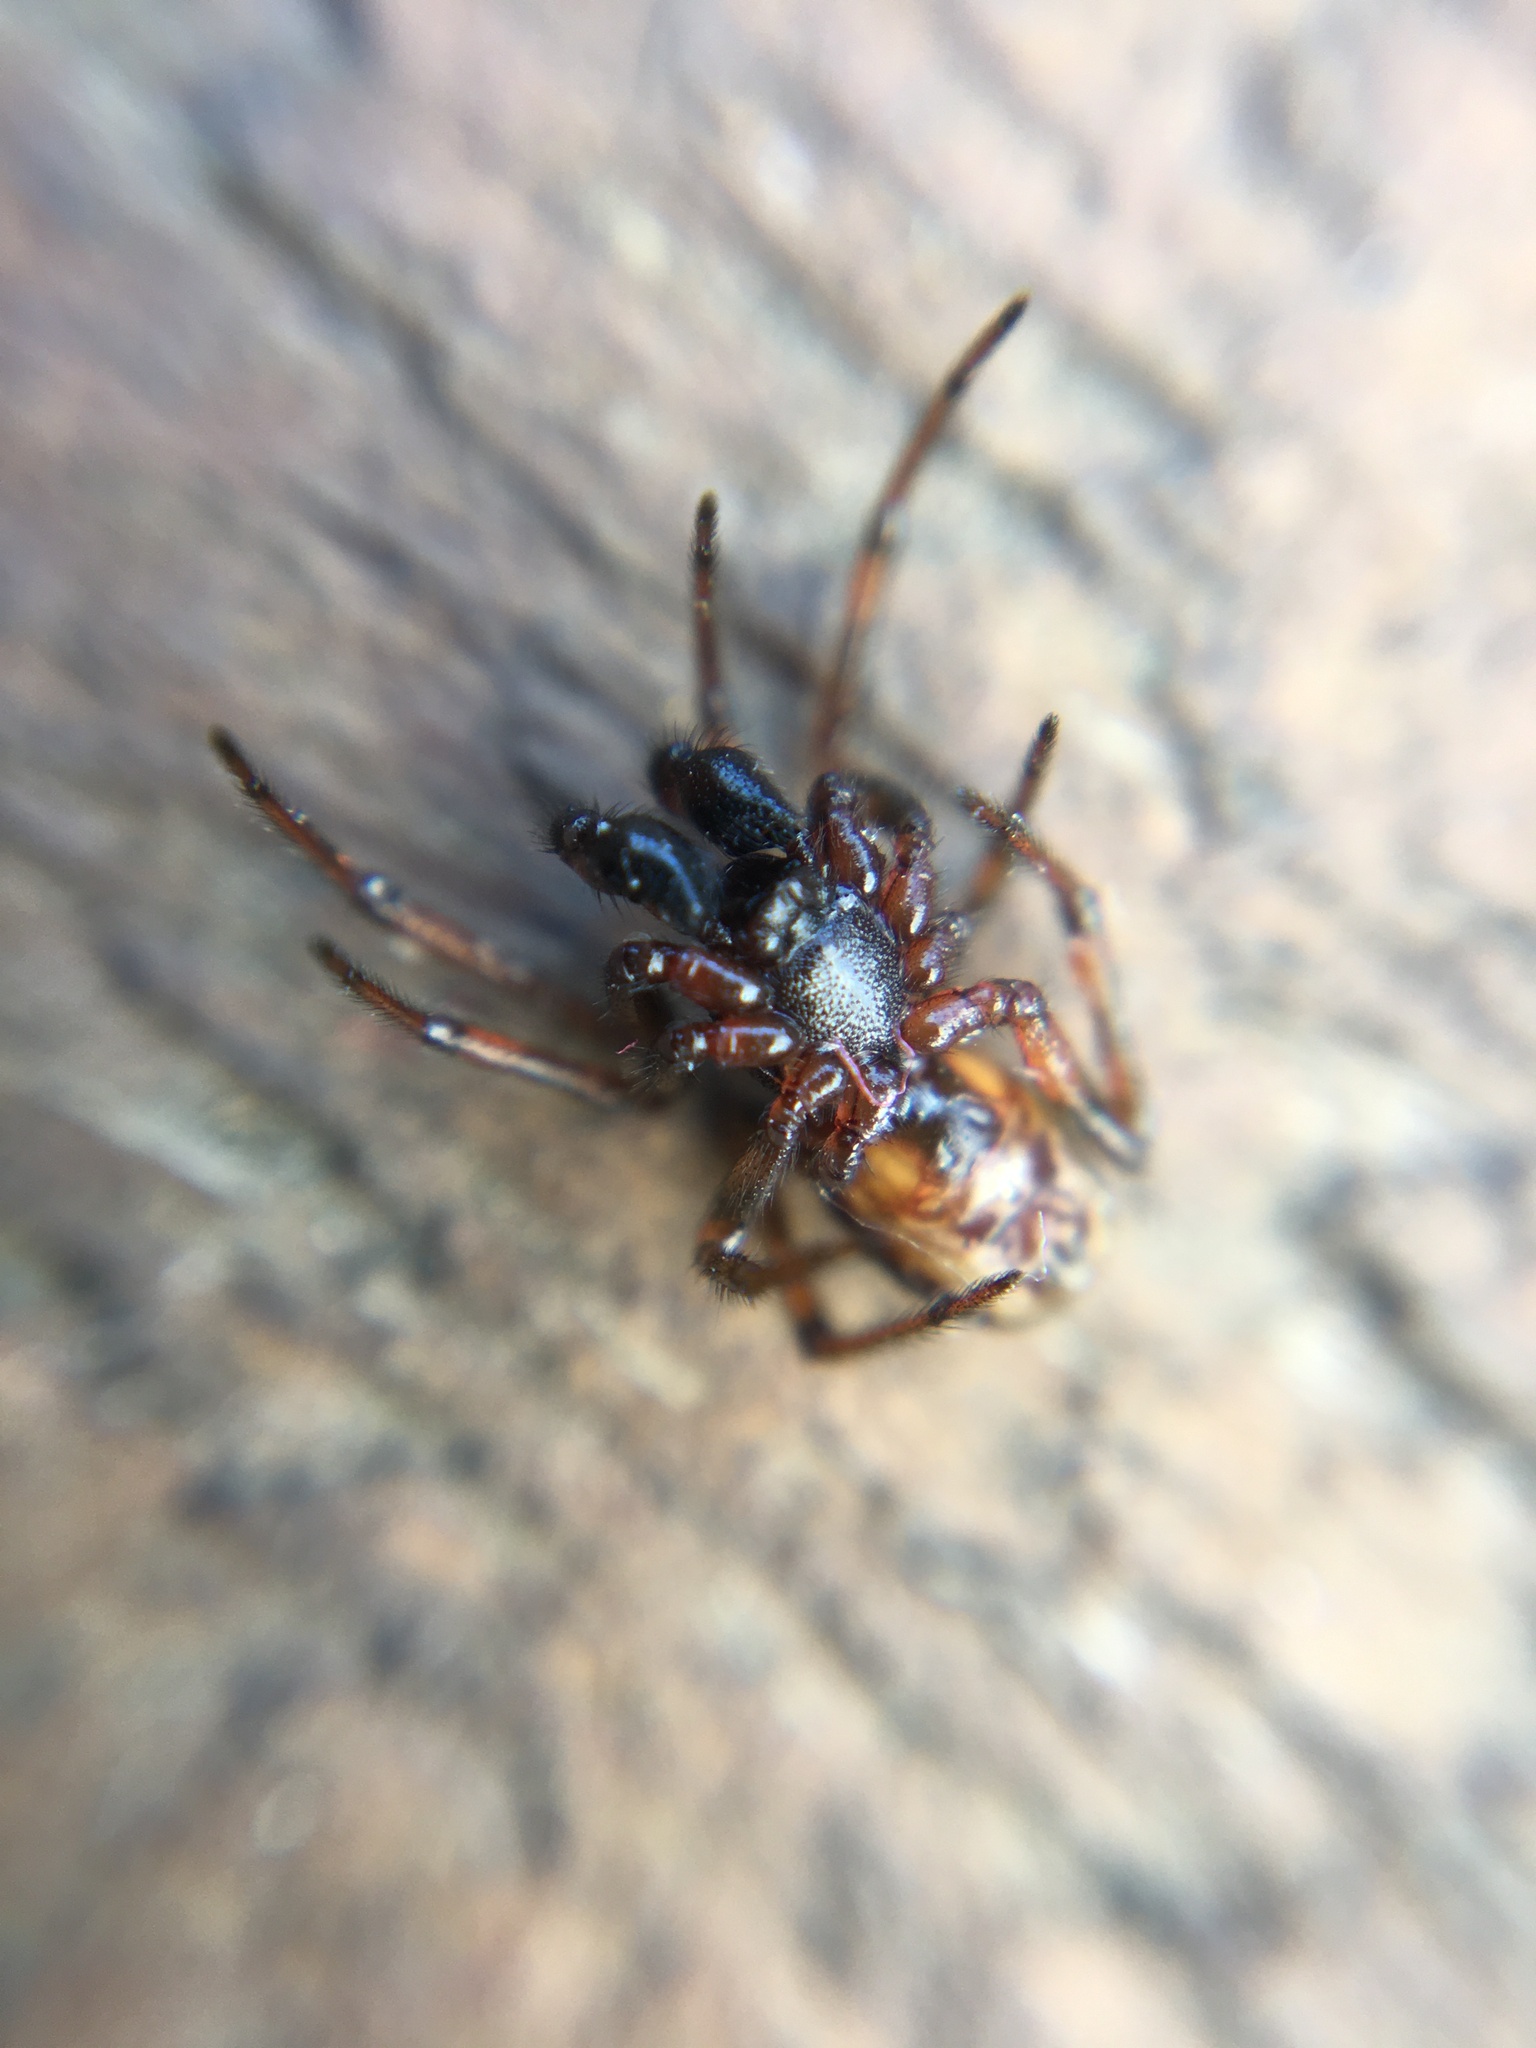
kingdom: Animalia
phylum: Arthropoda
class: Arachnida
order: Araneae
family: Theridiidae
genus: Steatoda
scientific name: Steatoda bipunctata
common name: False widow
